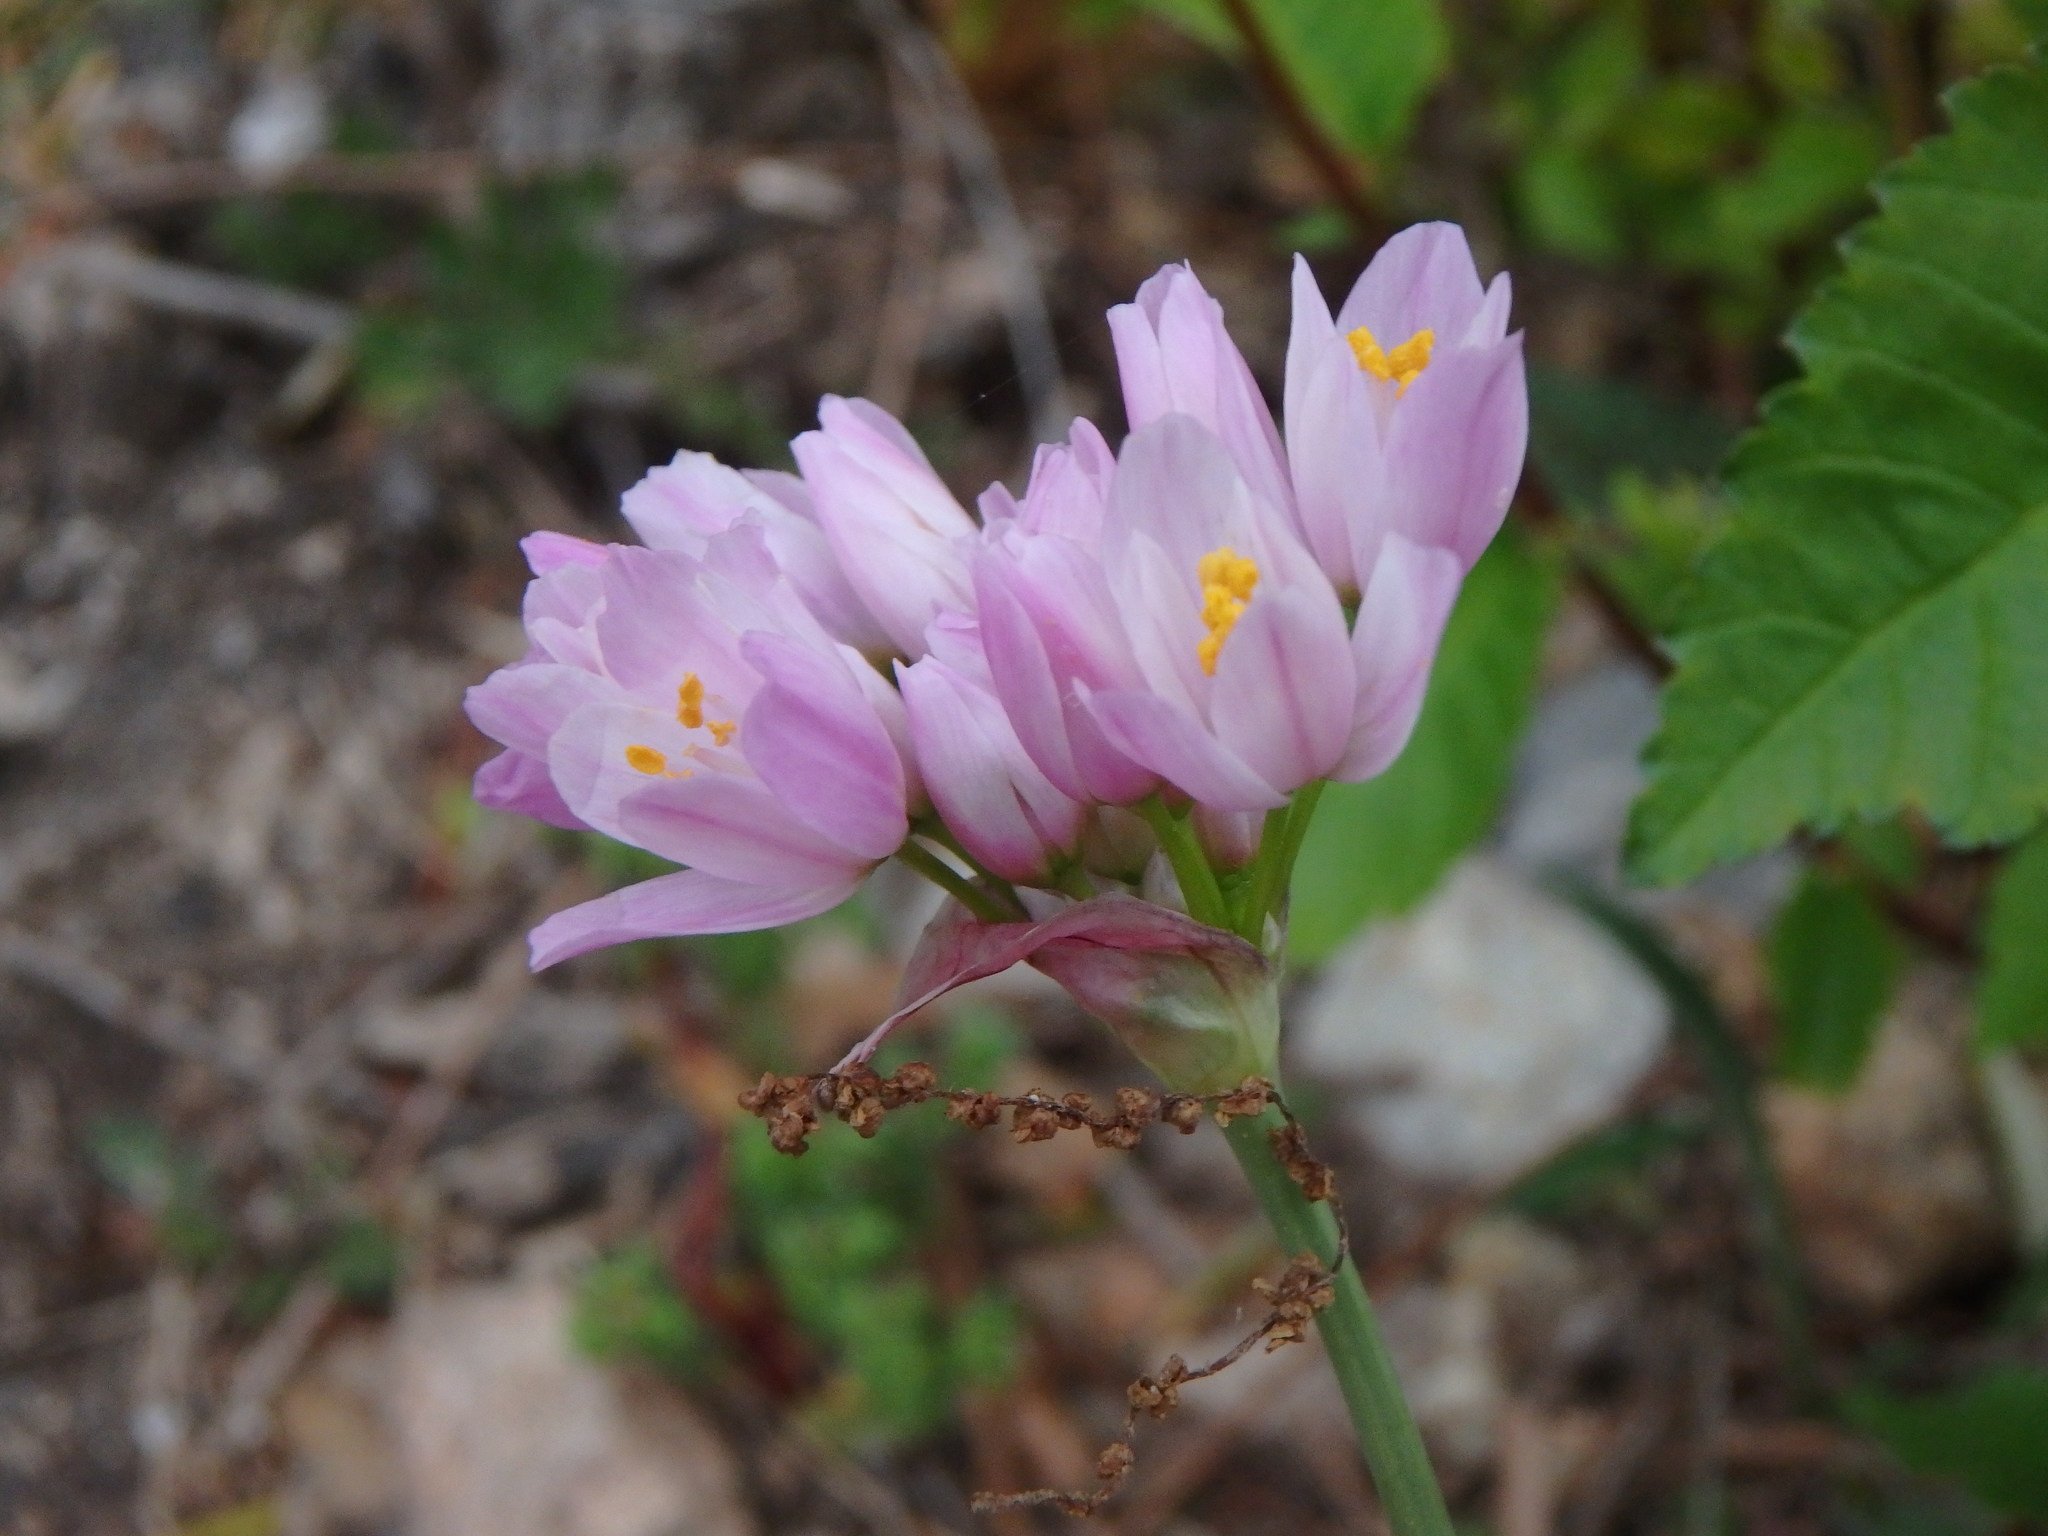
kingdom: Plantae
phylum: Tracheophyta
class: Liliopsida
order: Asparagales
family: Amaryllidaceae
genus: Allium
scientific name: Allium roseum
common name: Rosy garlic
